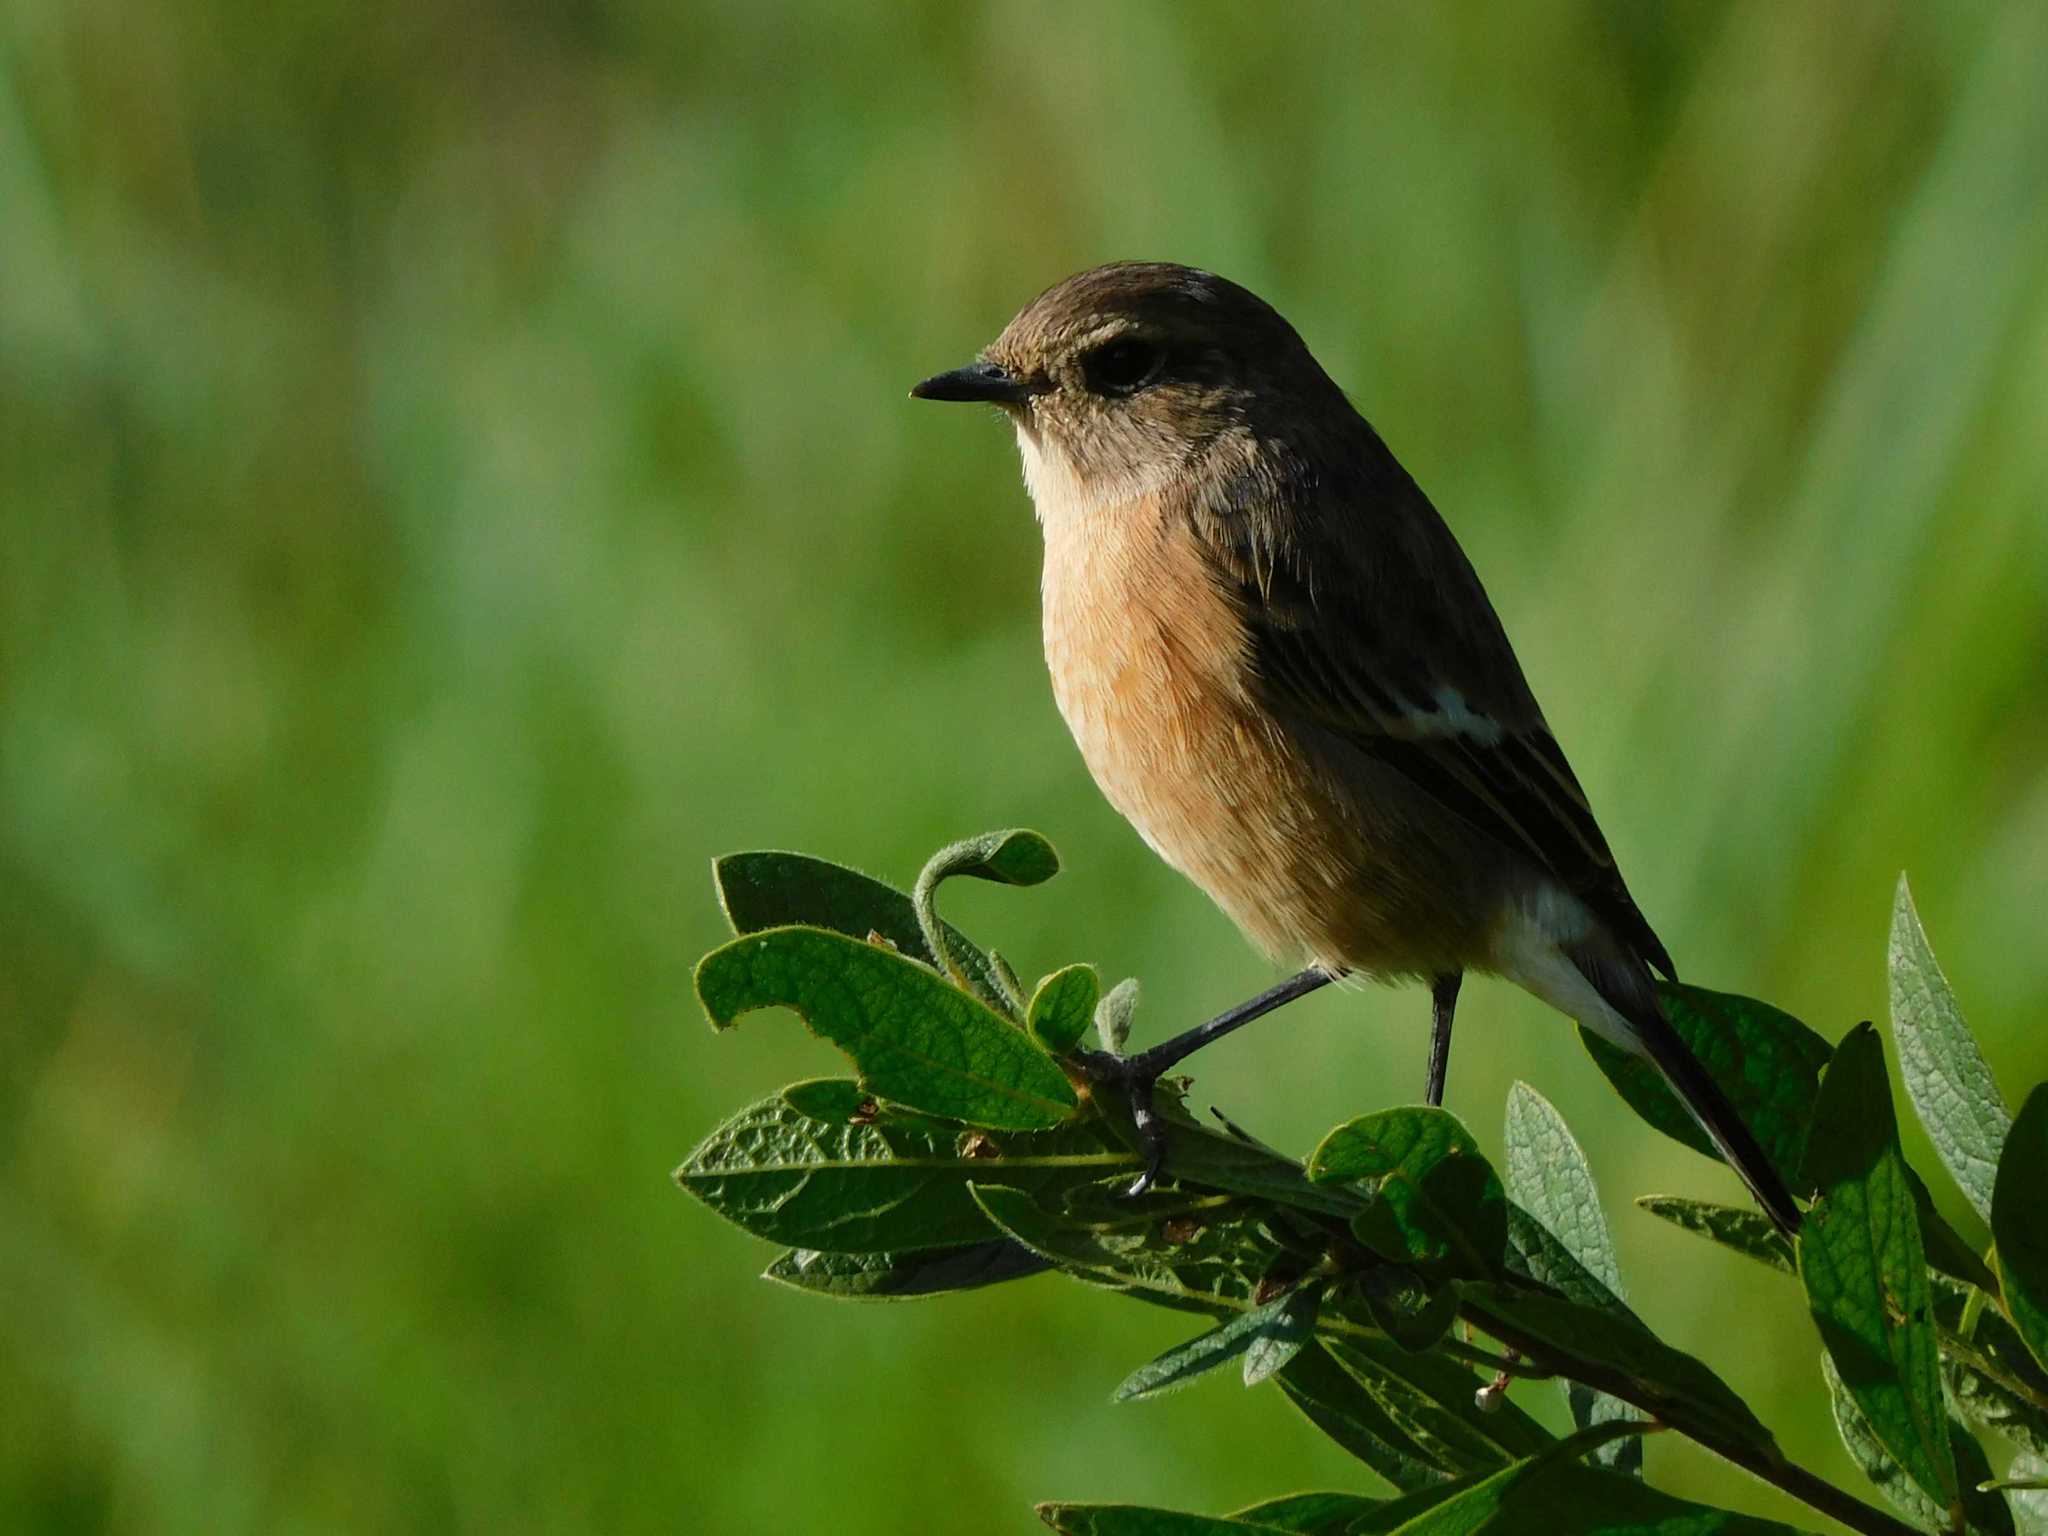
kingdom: Animalia
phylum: Chordata
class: Aves
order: Passeriformes
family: Muscicapidae
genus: Saxicola
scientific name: Saxicola torquatus
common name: African stonechat
